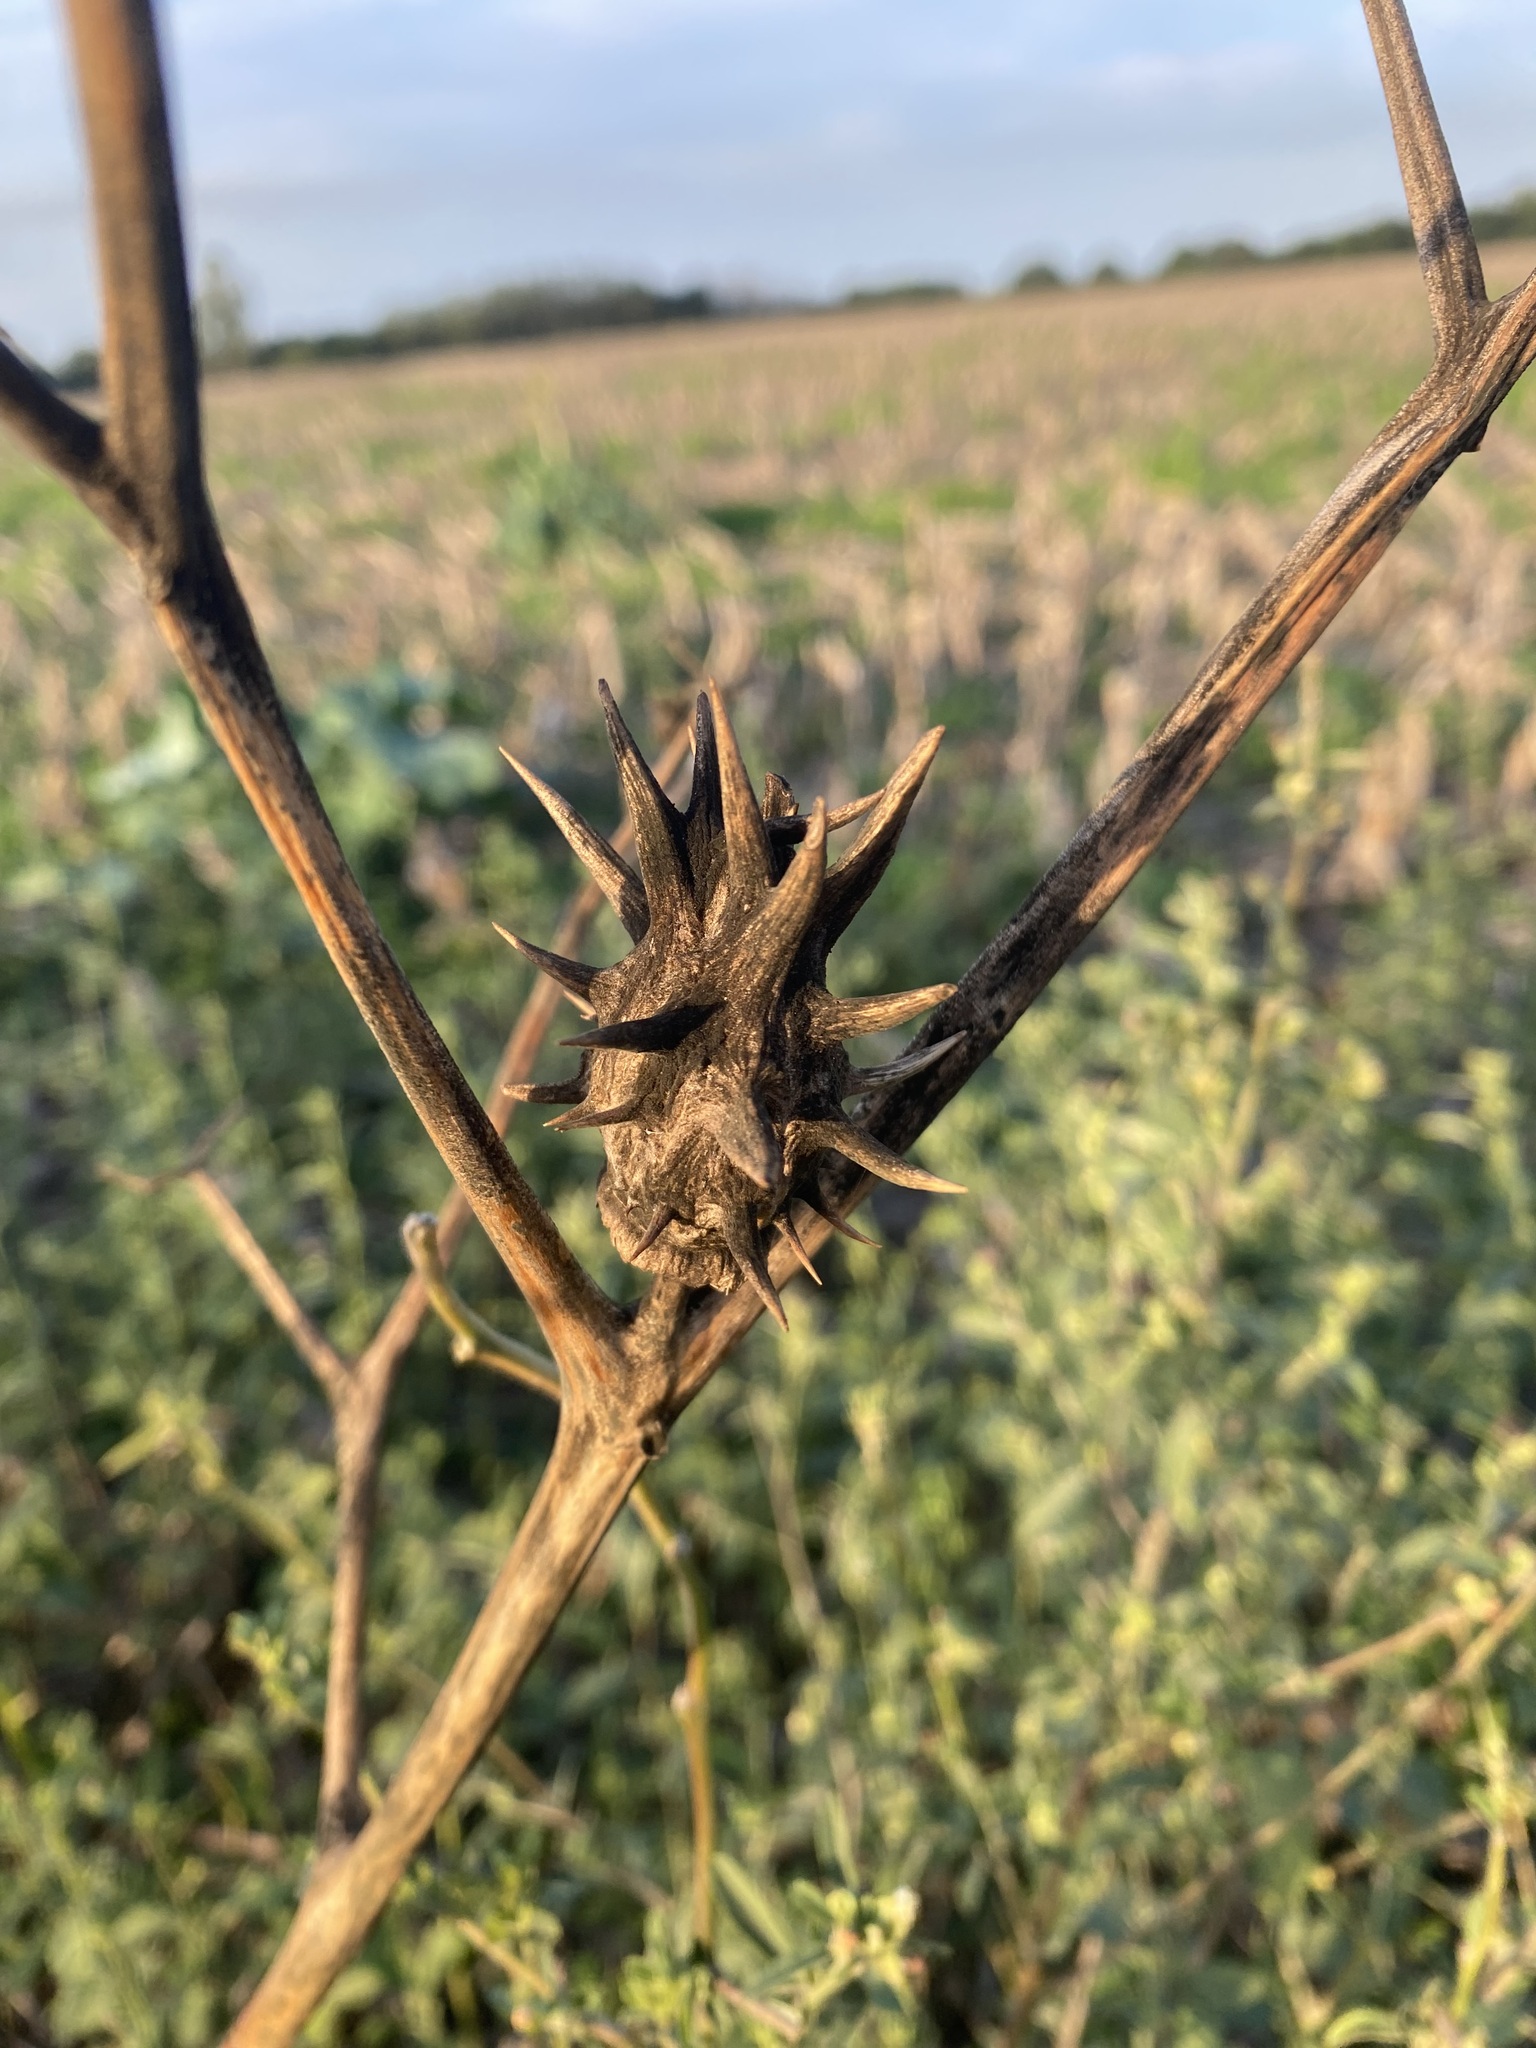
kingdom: Plantae
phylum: Tracheophyta
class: Magnoliopsida
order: Solanales
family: Solanaceae
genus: Datura
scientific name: Datura ferox
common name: Angel's-trumpets
